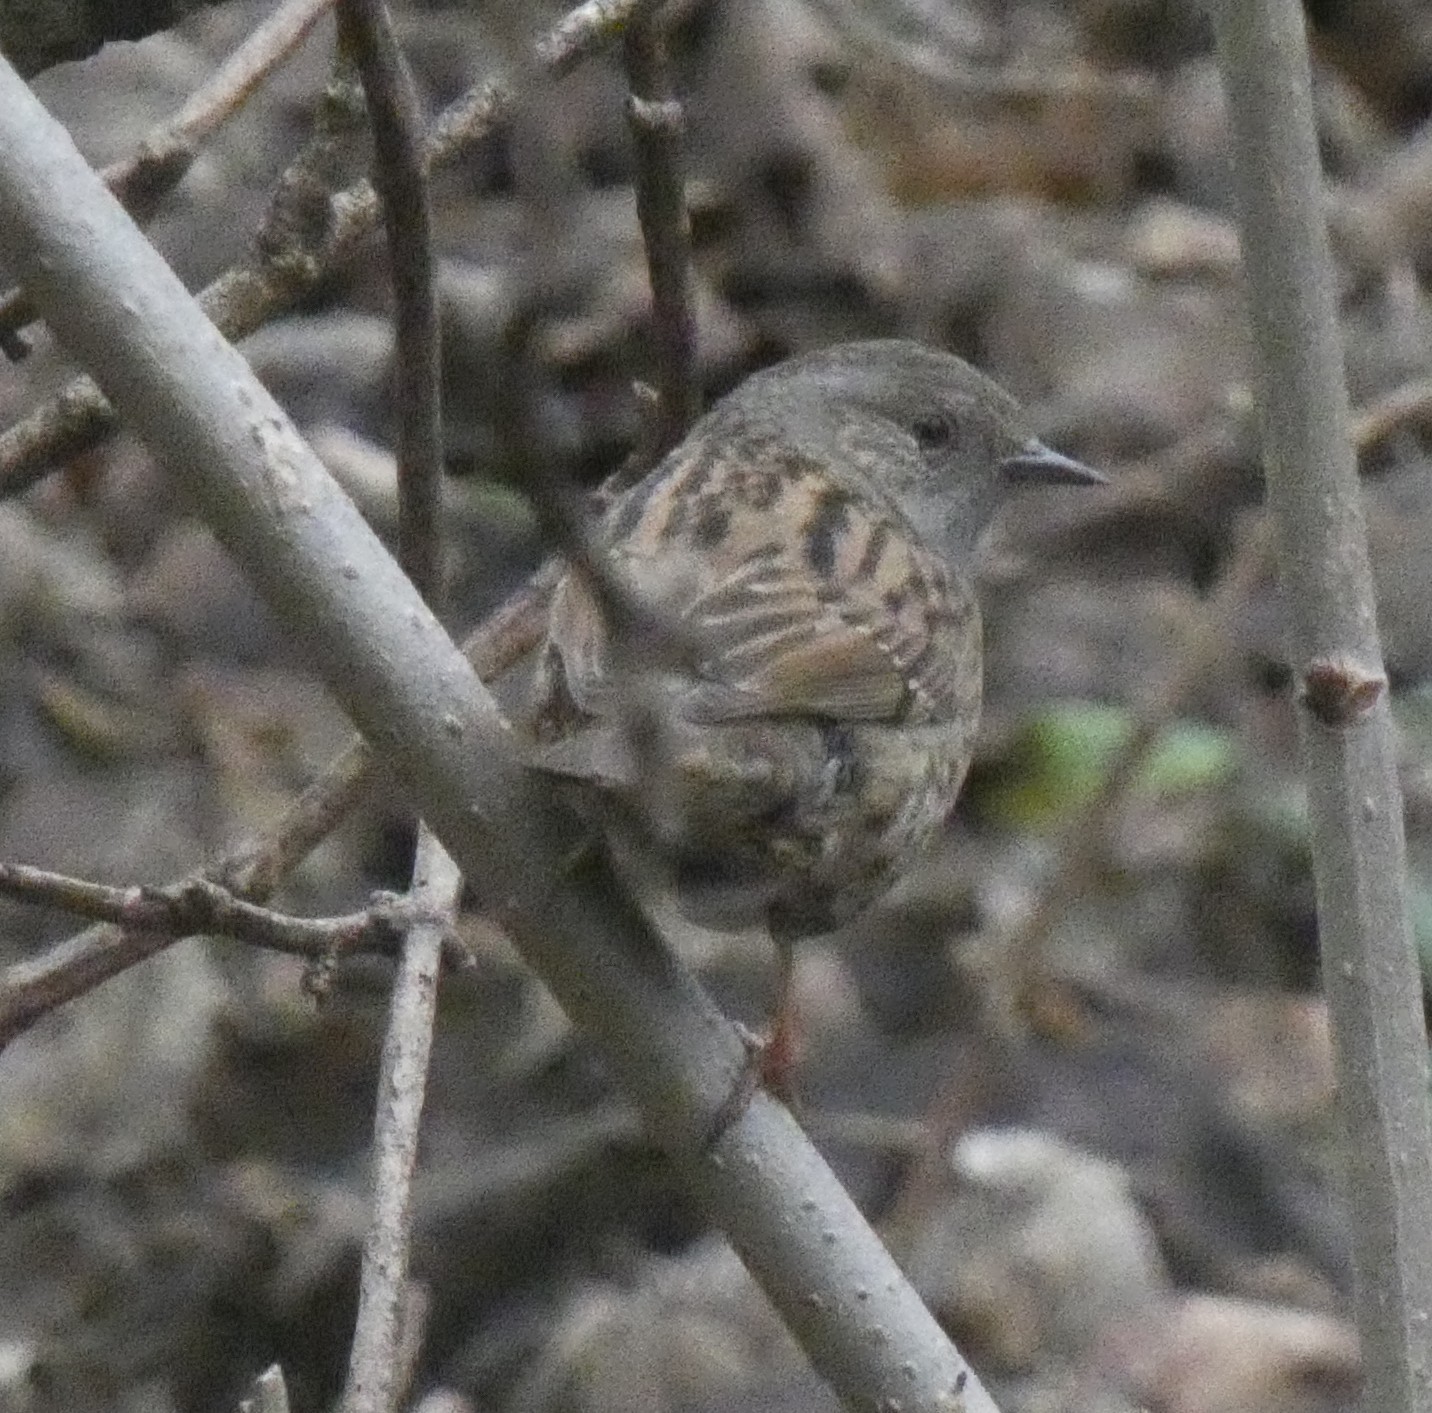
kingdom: Animalia
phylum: Chordata
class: Aves
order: Passeriformes
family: Prunellidae
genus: Prunella
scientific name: Prunella modularis
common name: Dunnock
